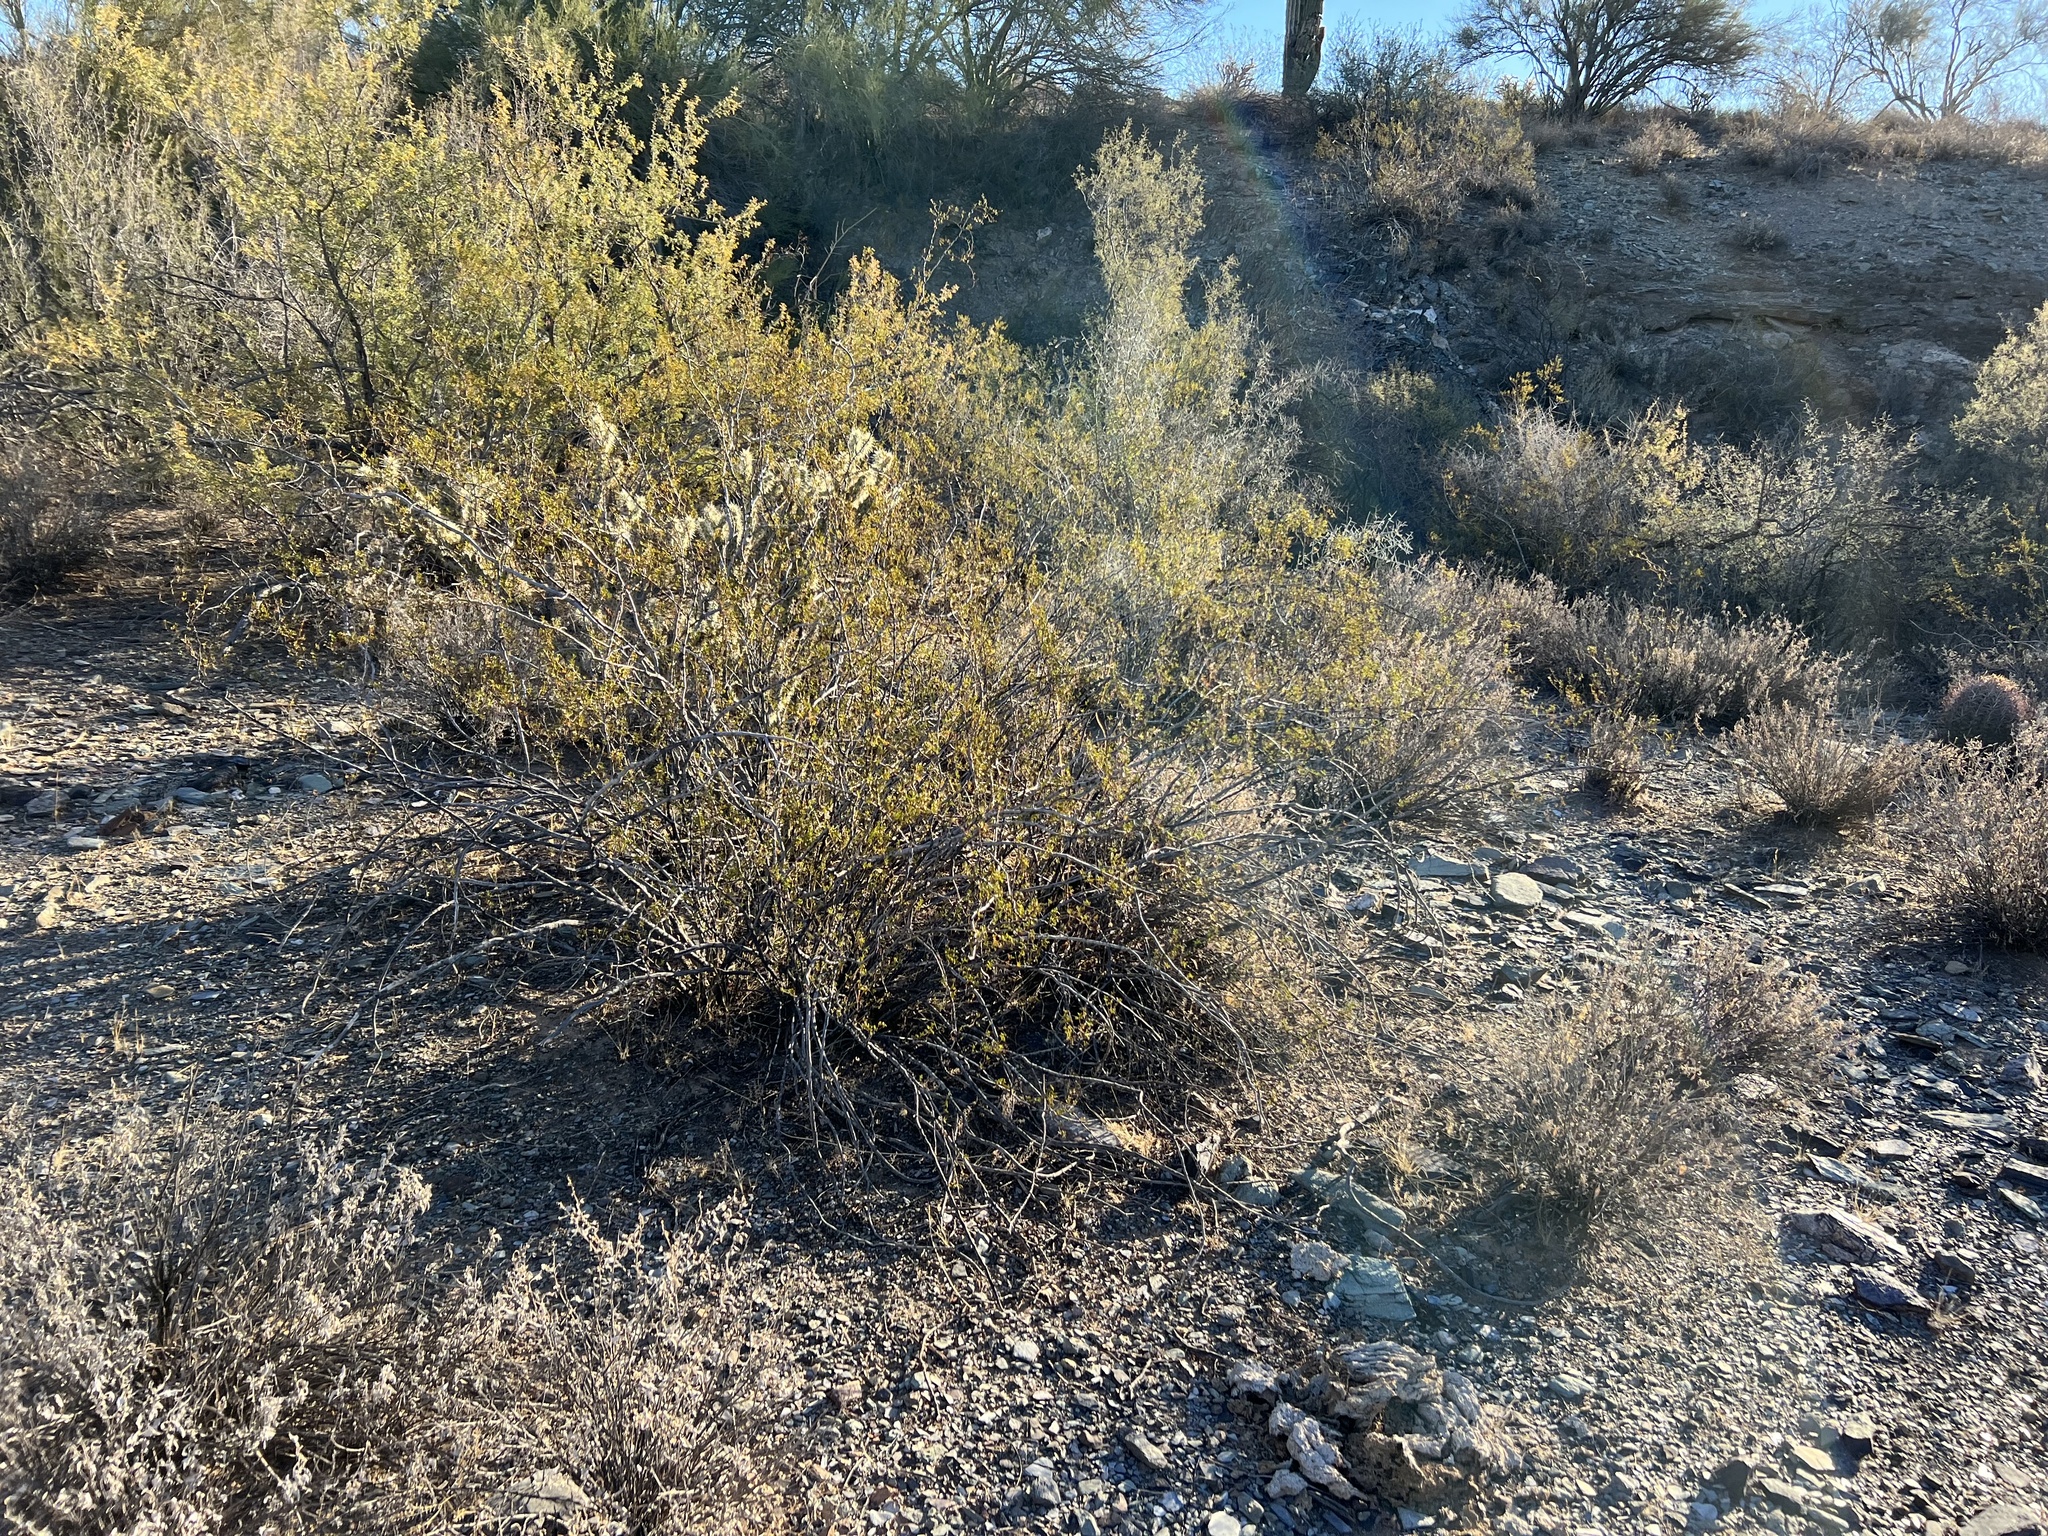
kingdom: Plantae
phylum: Tracheophyta
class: Magnoliopsida
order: Zygophyllales
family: Zygophyllaceae
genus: Larrea
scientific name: Larrea tridentata
